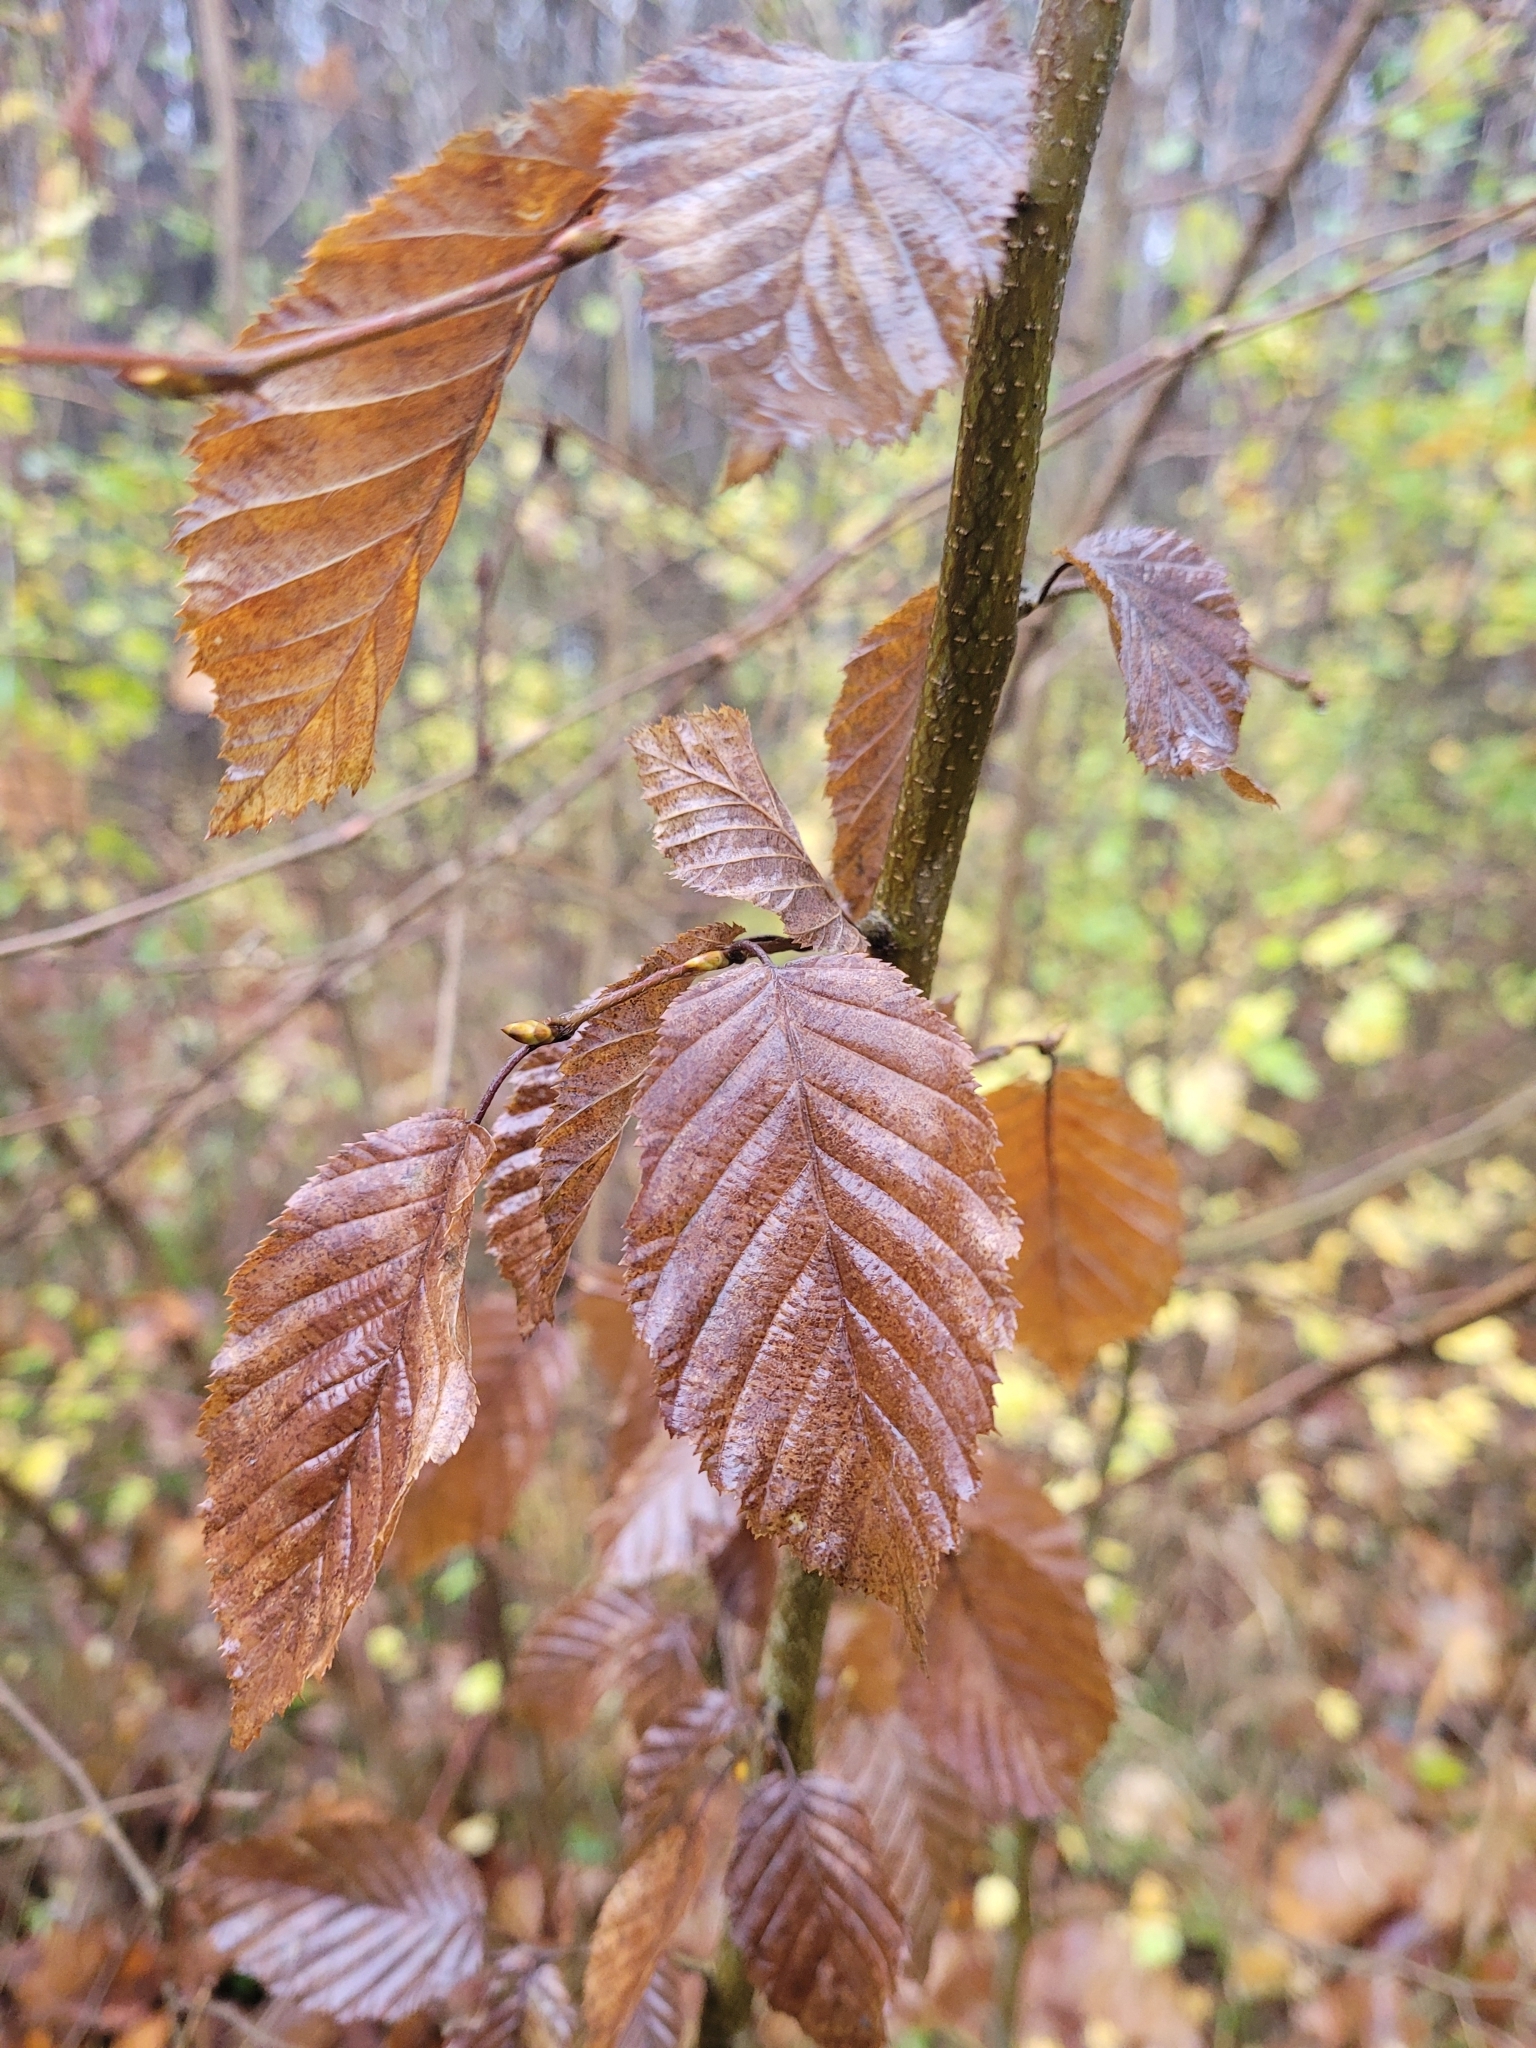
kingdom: Plantae
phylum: Tracheophyta
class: Magnoliopsida
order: Fagales
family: Betulaceae
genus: Carpinus
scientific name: Carpinus betulus
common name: Hornbeam
